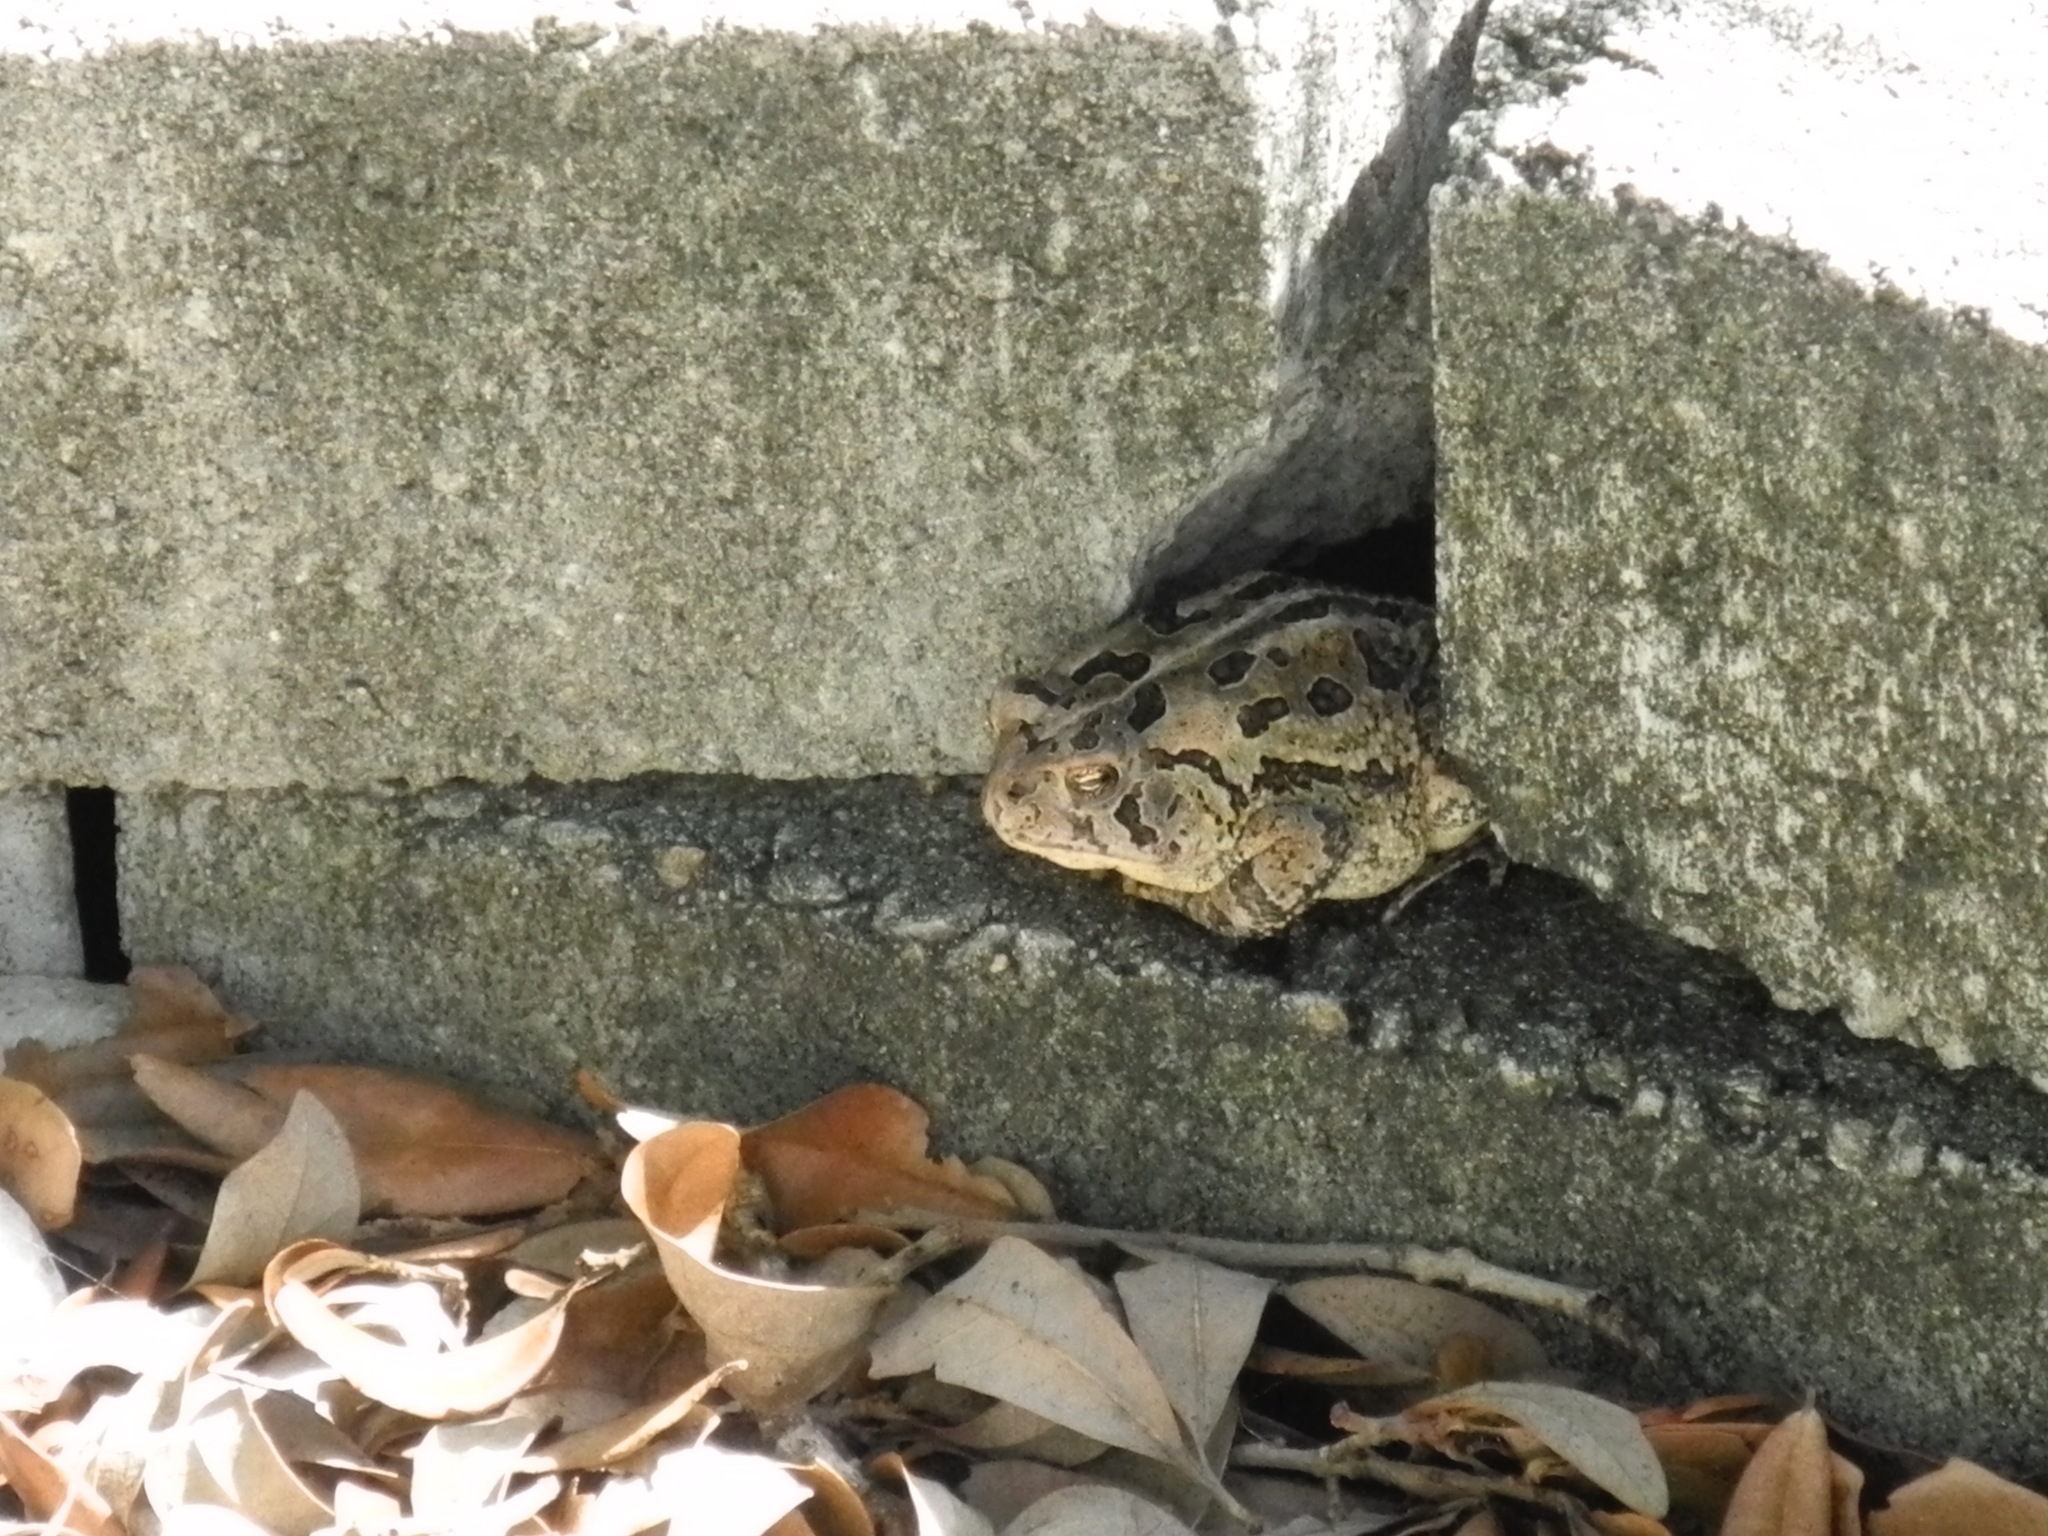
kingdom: Animalia
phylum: Chordata
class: Amphibia
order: Anura
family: Bufonidae
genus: Anaxyrus
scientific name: Anaxyrus fowleri
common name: Fowler's toad
